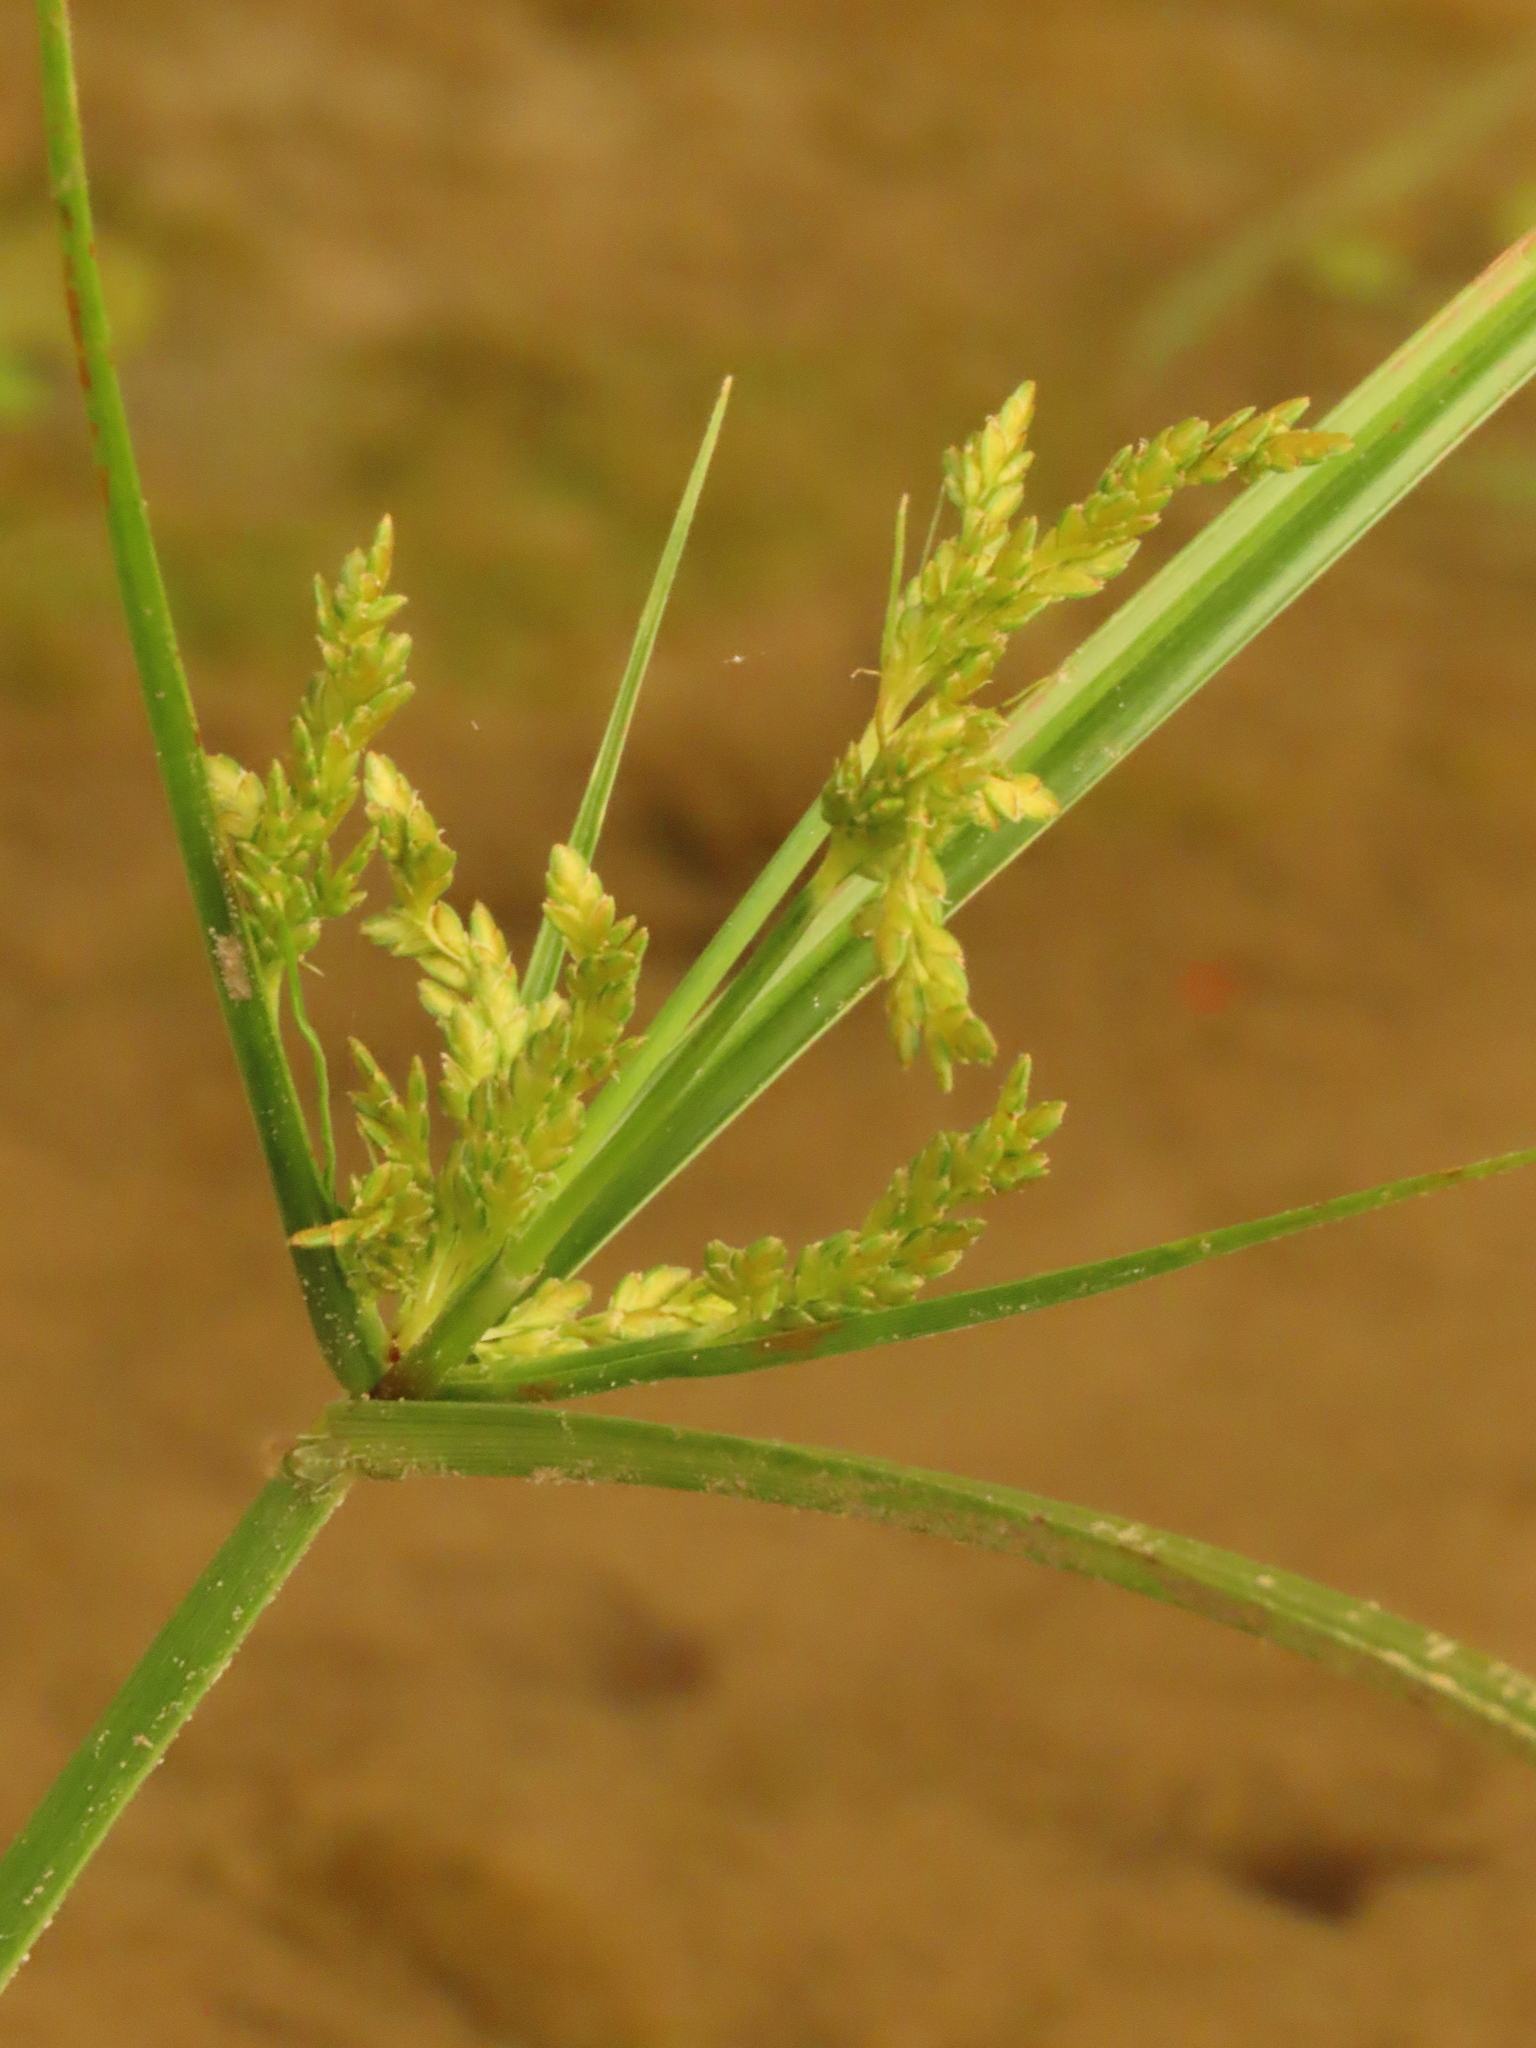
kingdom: Plantae
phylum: Tracheophyta
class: Liliopsida
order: Poales
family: Cyperaceae
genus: Cyperus
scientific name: Cyperus iria
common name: Ricefield flatsedge
